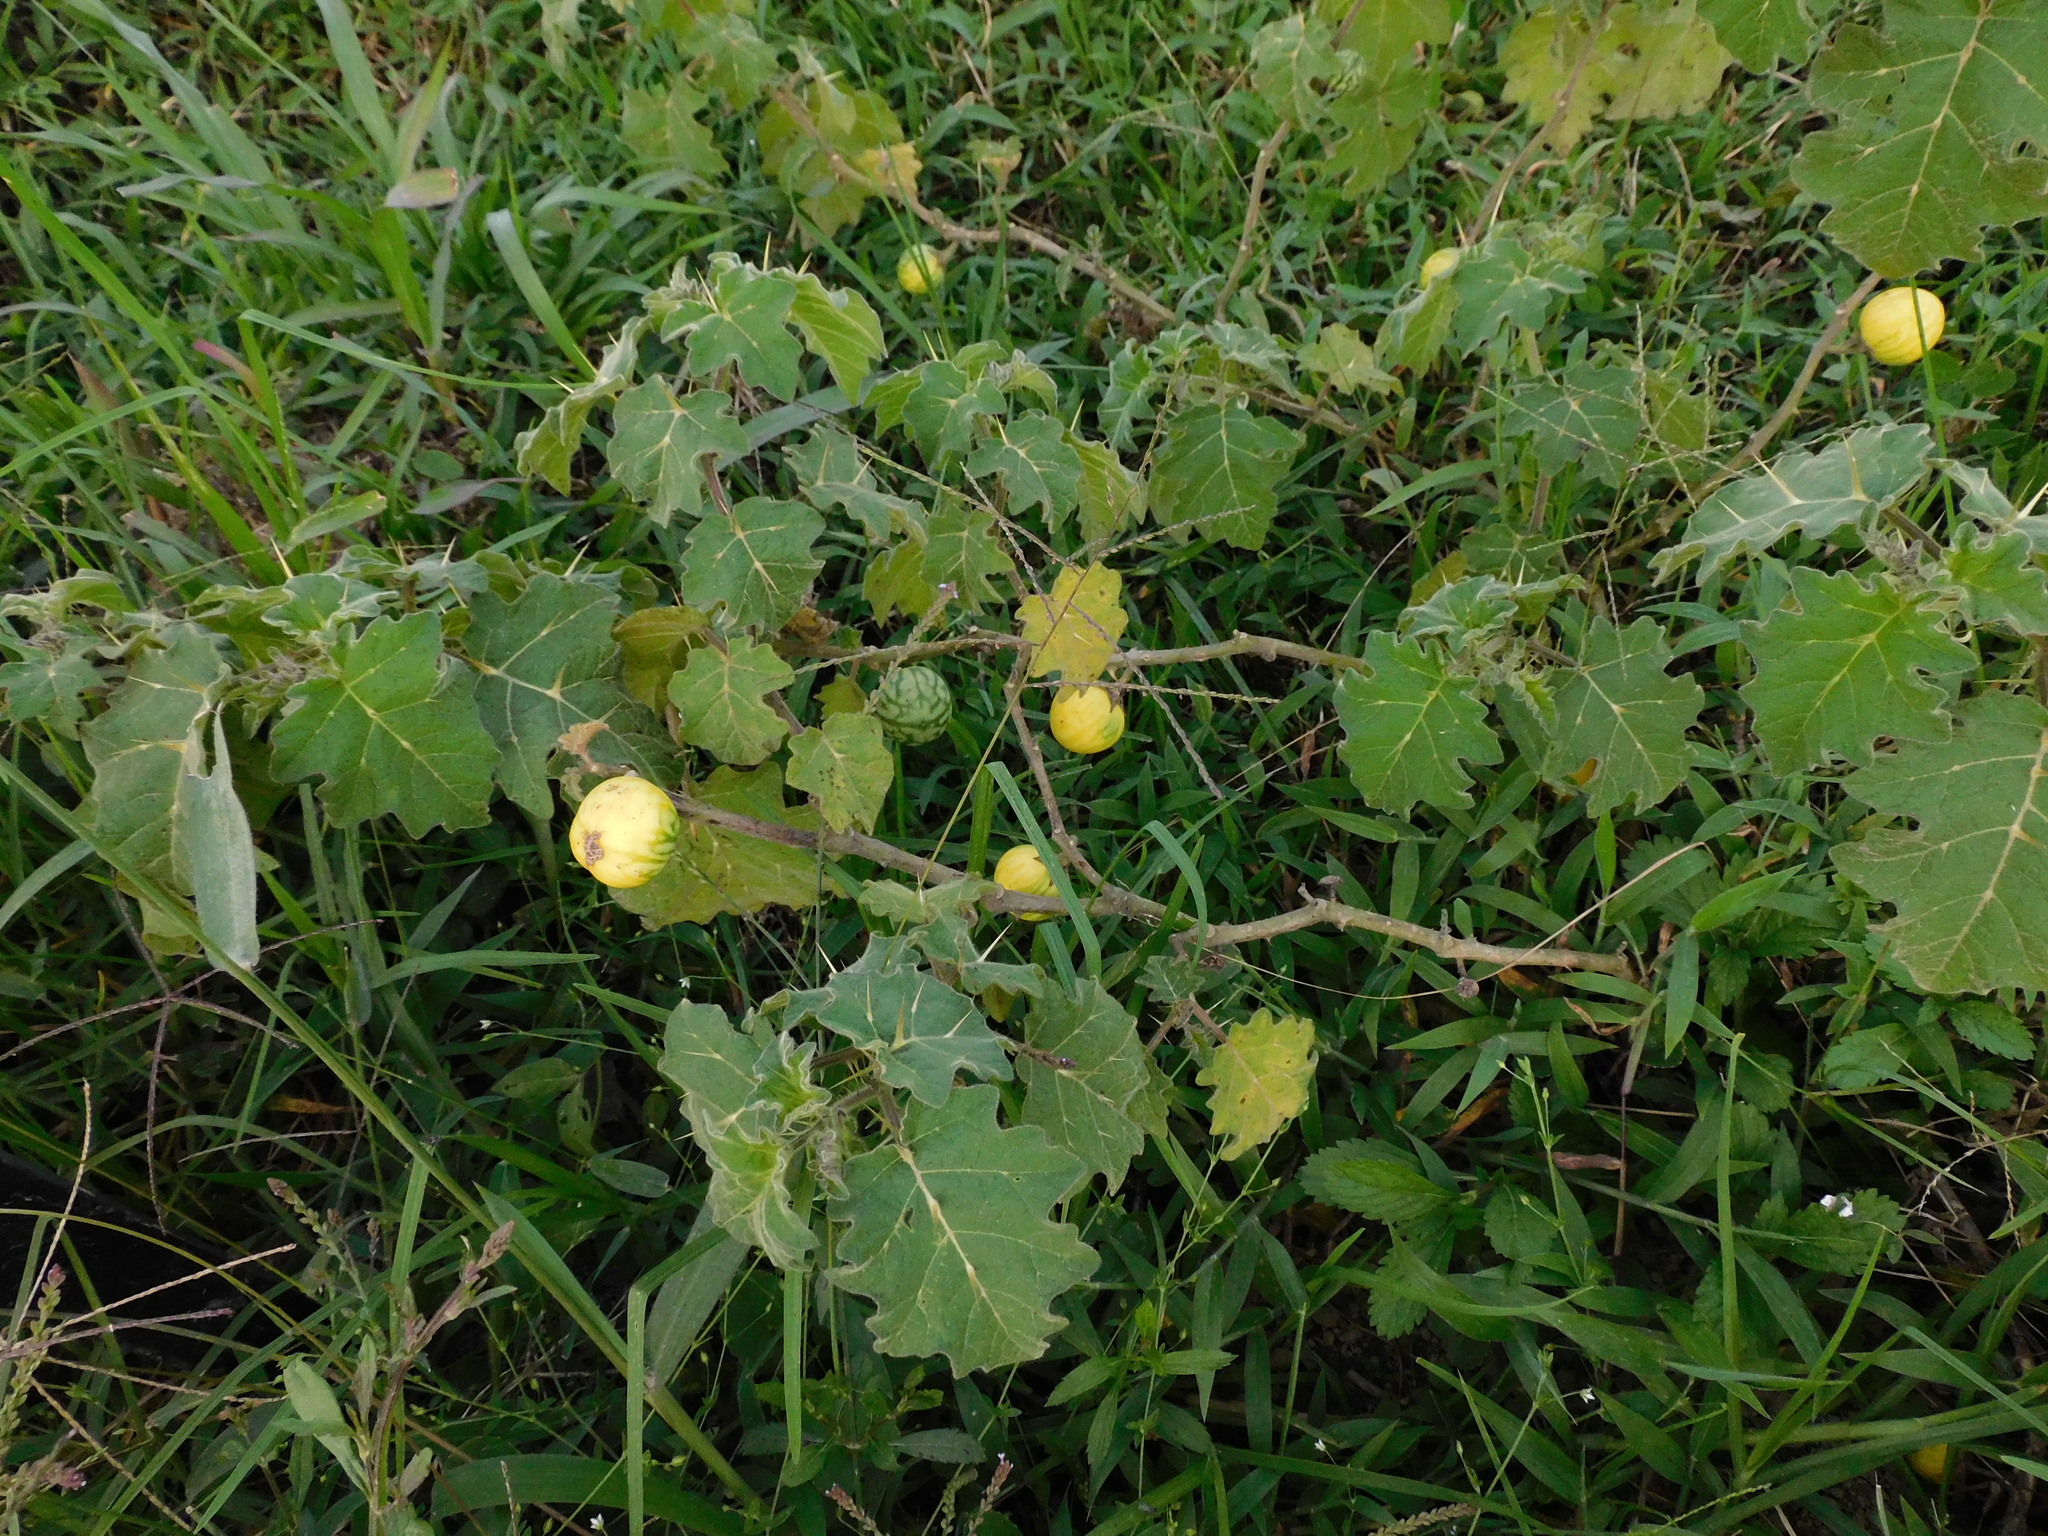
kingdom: Plantae
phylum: Tracheophyta
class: Magnoliopsida
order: Solanales
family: Solanaceae
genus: Solanum
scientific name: Solanum viarum
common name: Tropical soda apple
